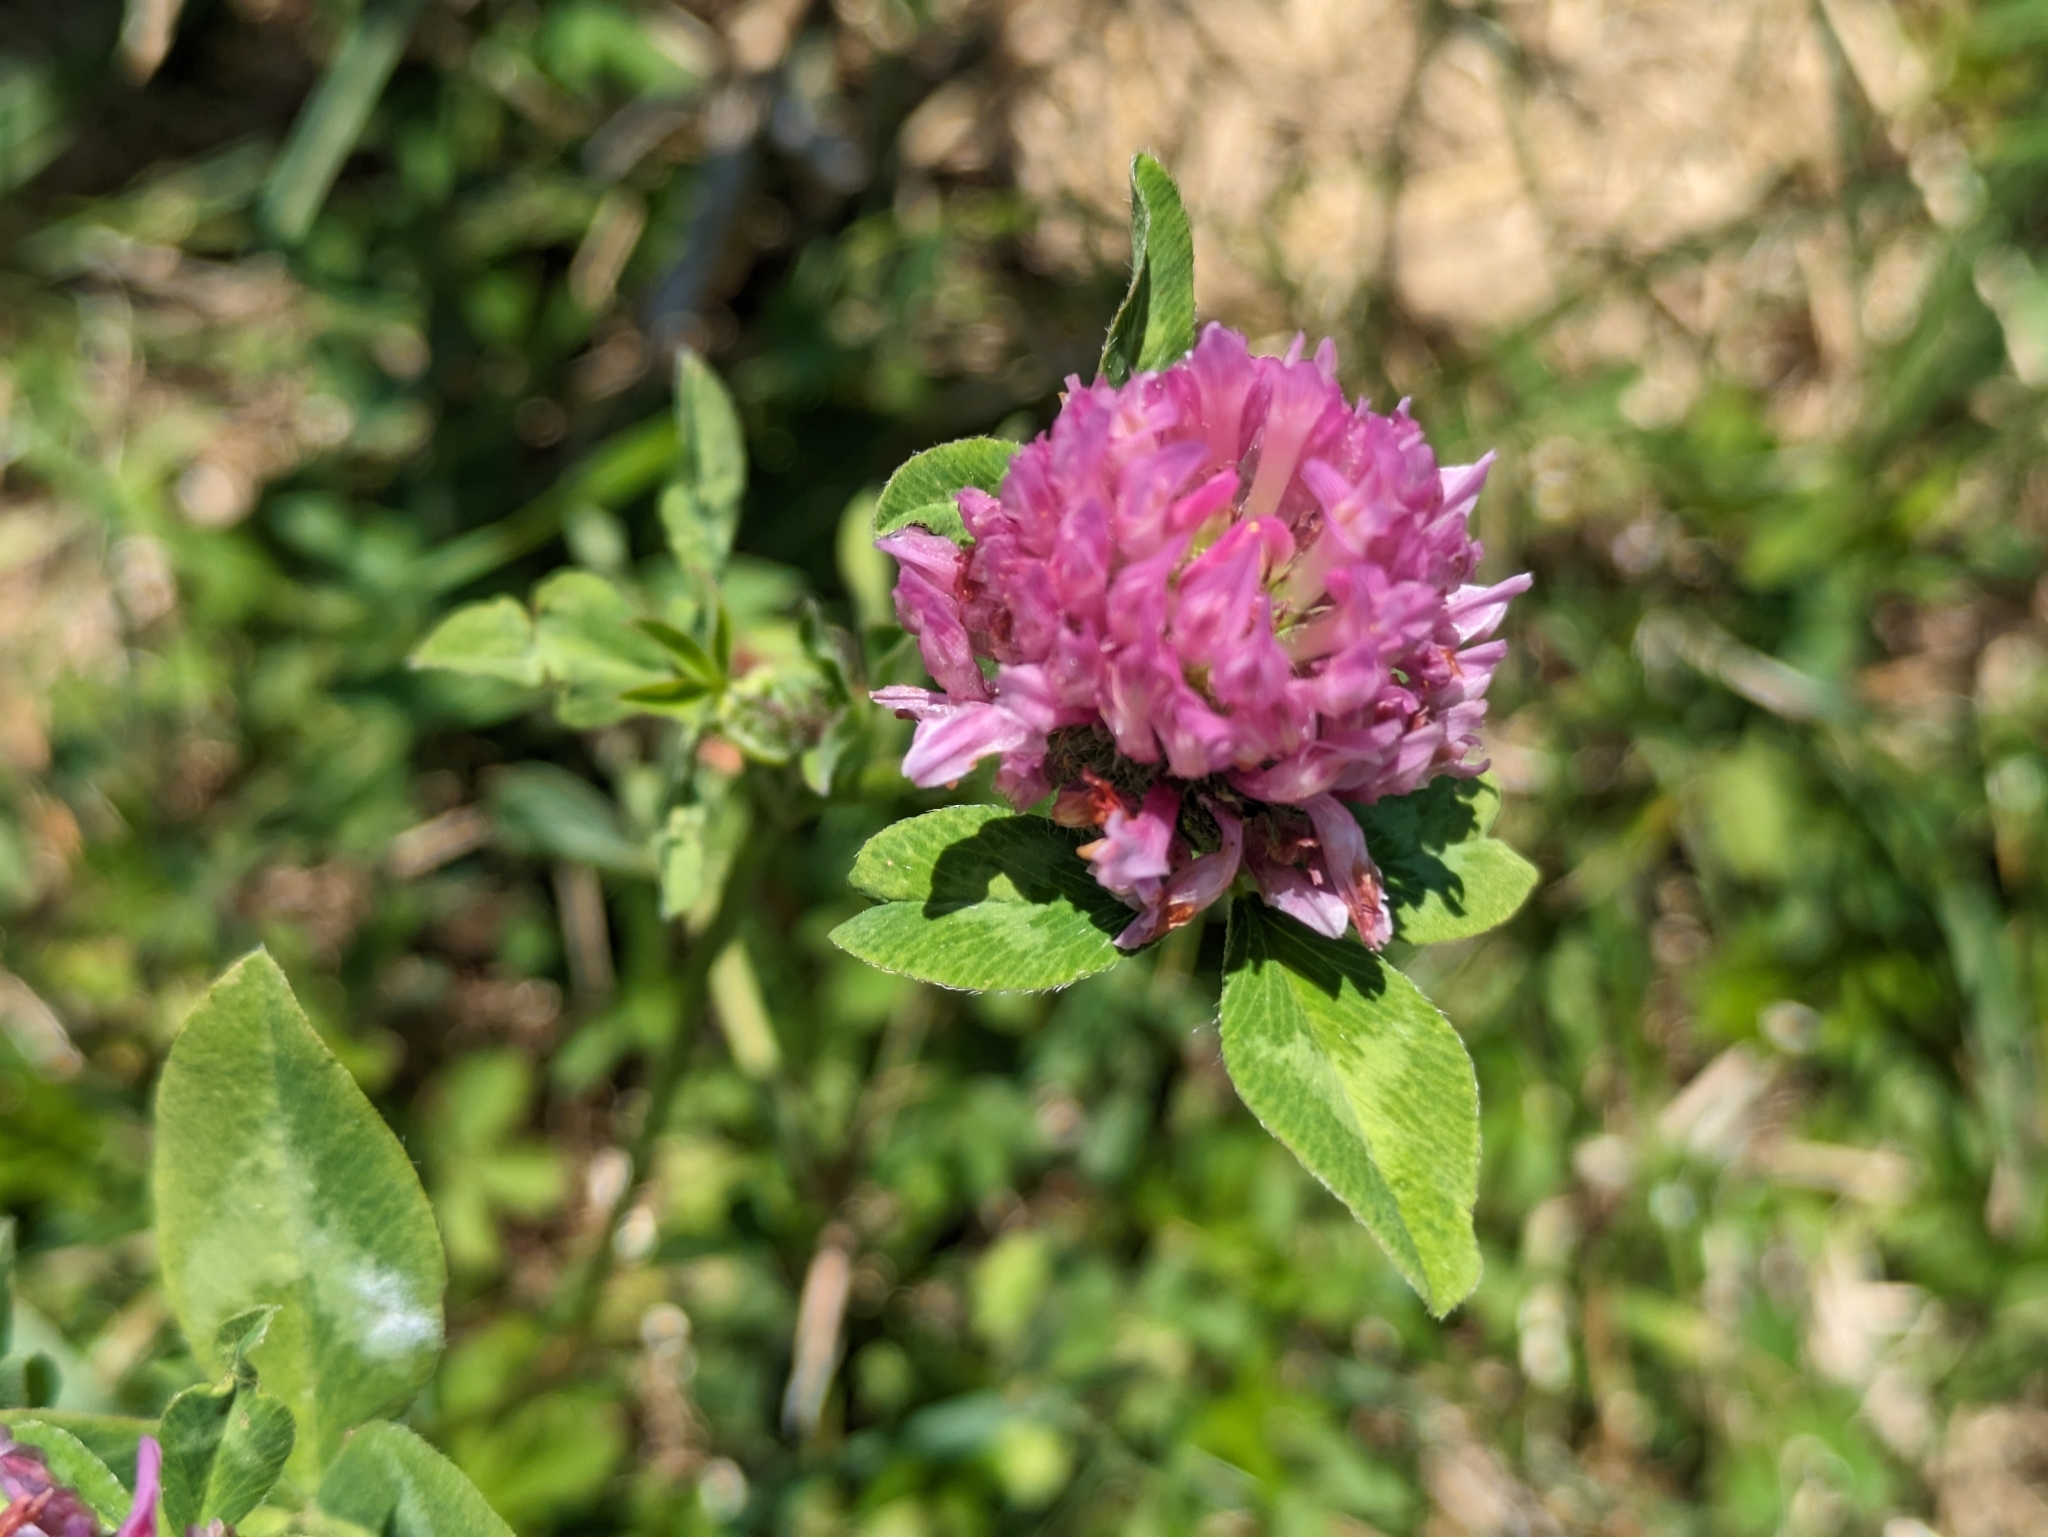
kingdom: Plantae
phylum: Tracheophyta
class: Magnoliopsida
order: Fabales
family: Fabaceae
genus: Trifolium
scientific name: Trifolium pratense
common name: Red clover
